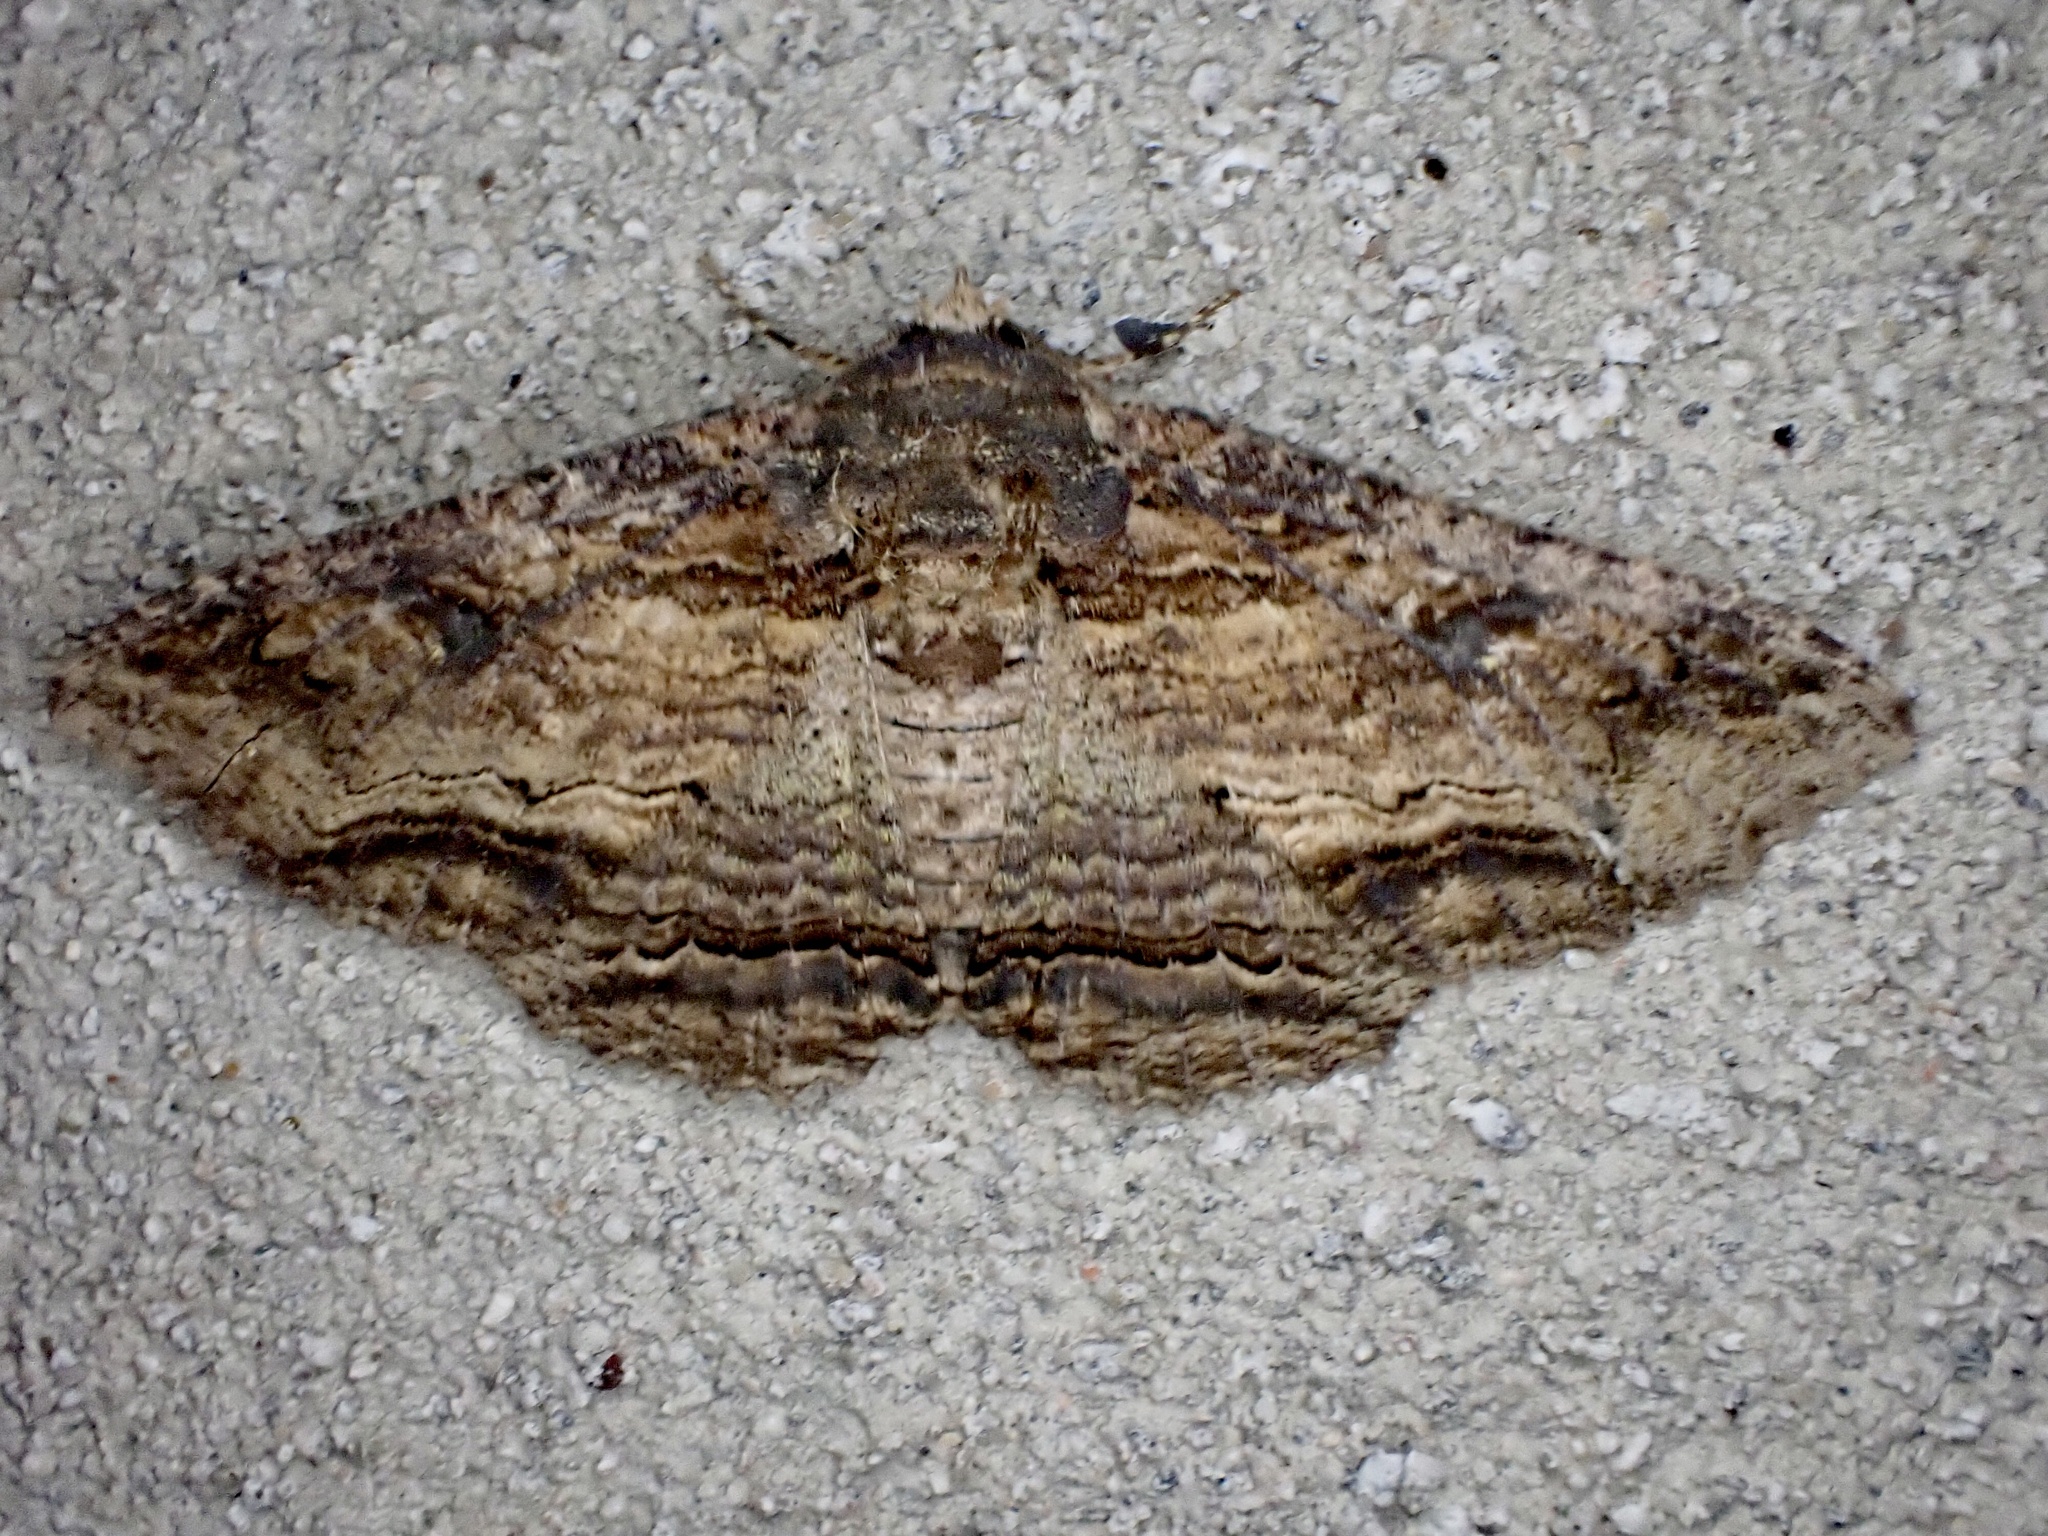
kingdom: Animalia
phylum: Arthropoda
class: Insecta
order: Lepidoptera
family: Erebidae
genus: Zale
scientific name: Zale lunata
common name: Lunate zale moth
